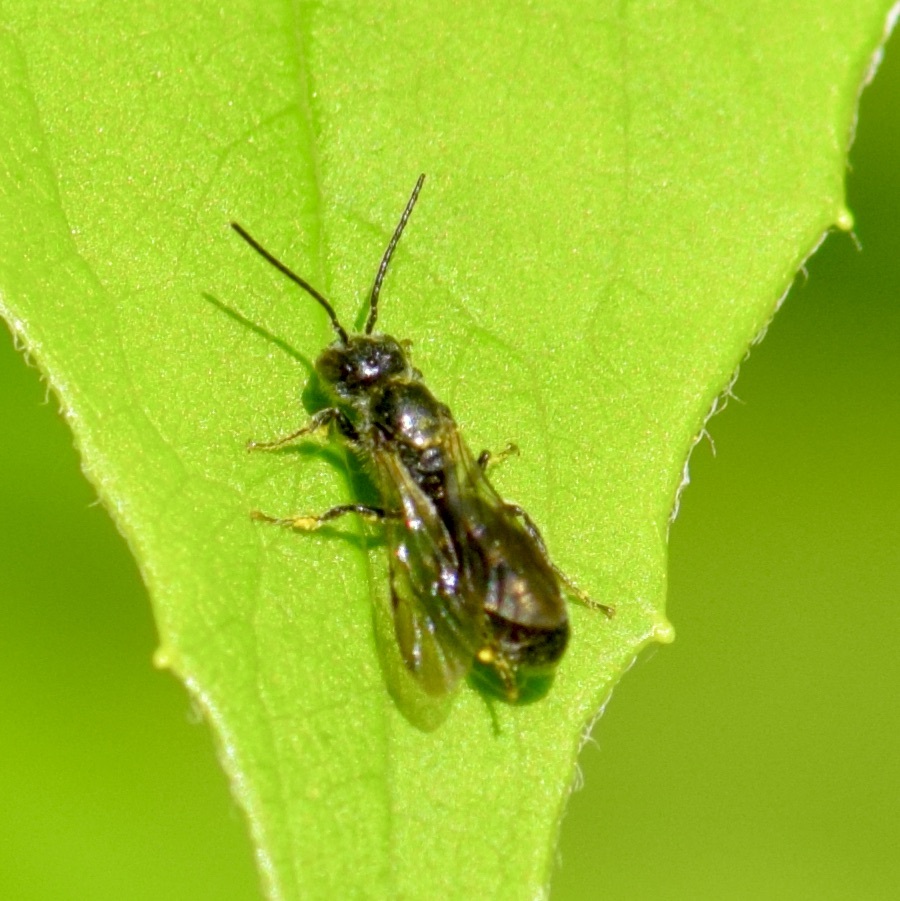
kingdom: Animalia
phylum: Arthropoda
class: Insecta
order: Hymenoptera
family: Megachilidae
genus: Chelostoma
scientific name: Chelostoma philadelphi
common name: Mock-orange scissor bee
